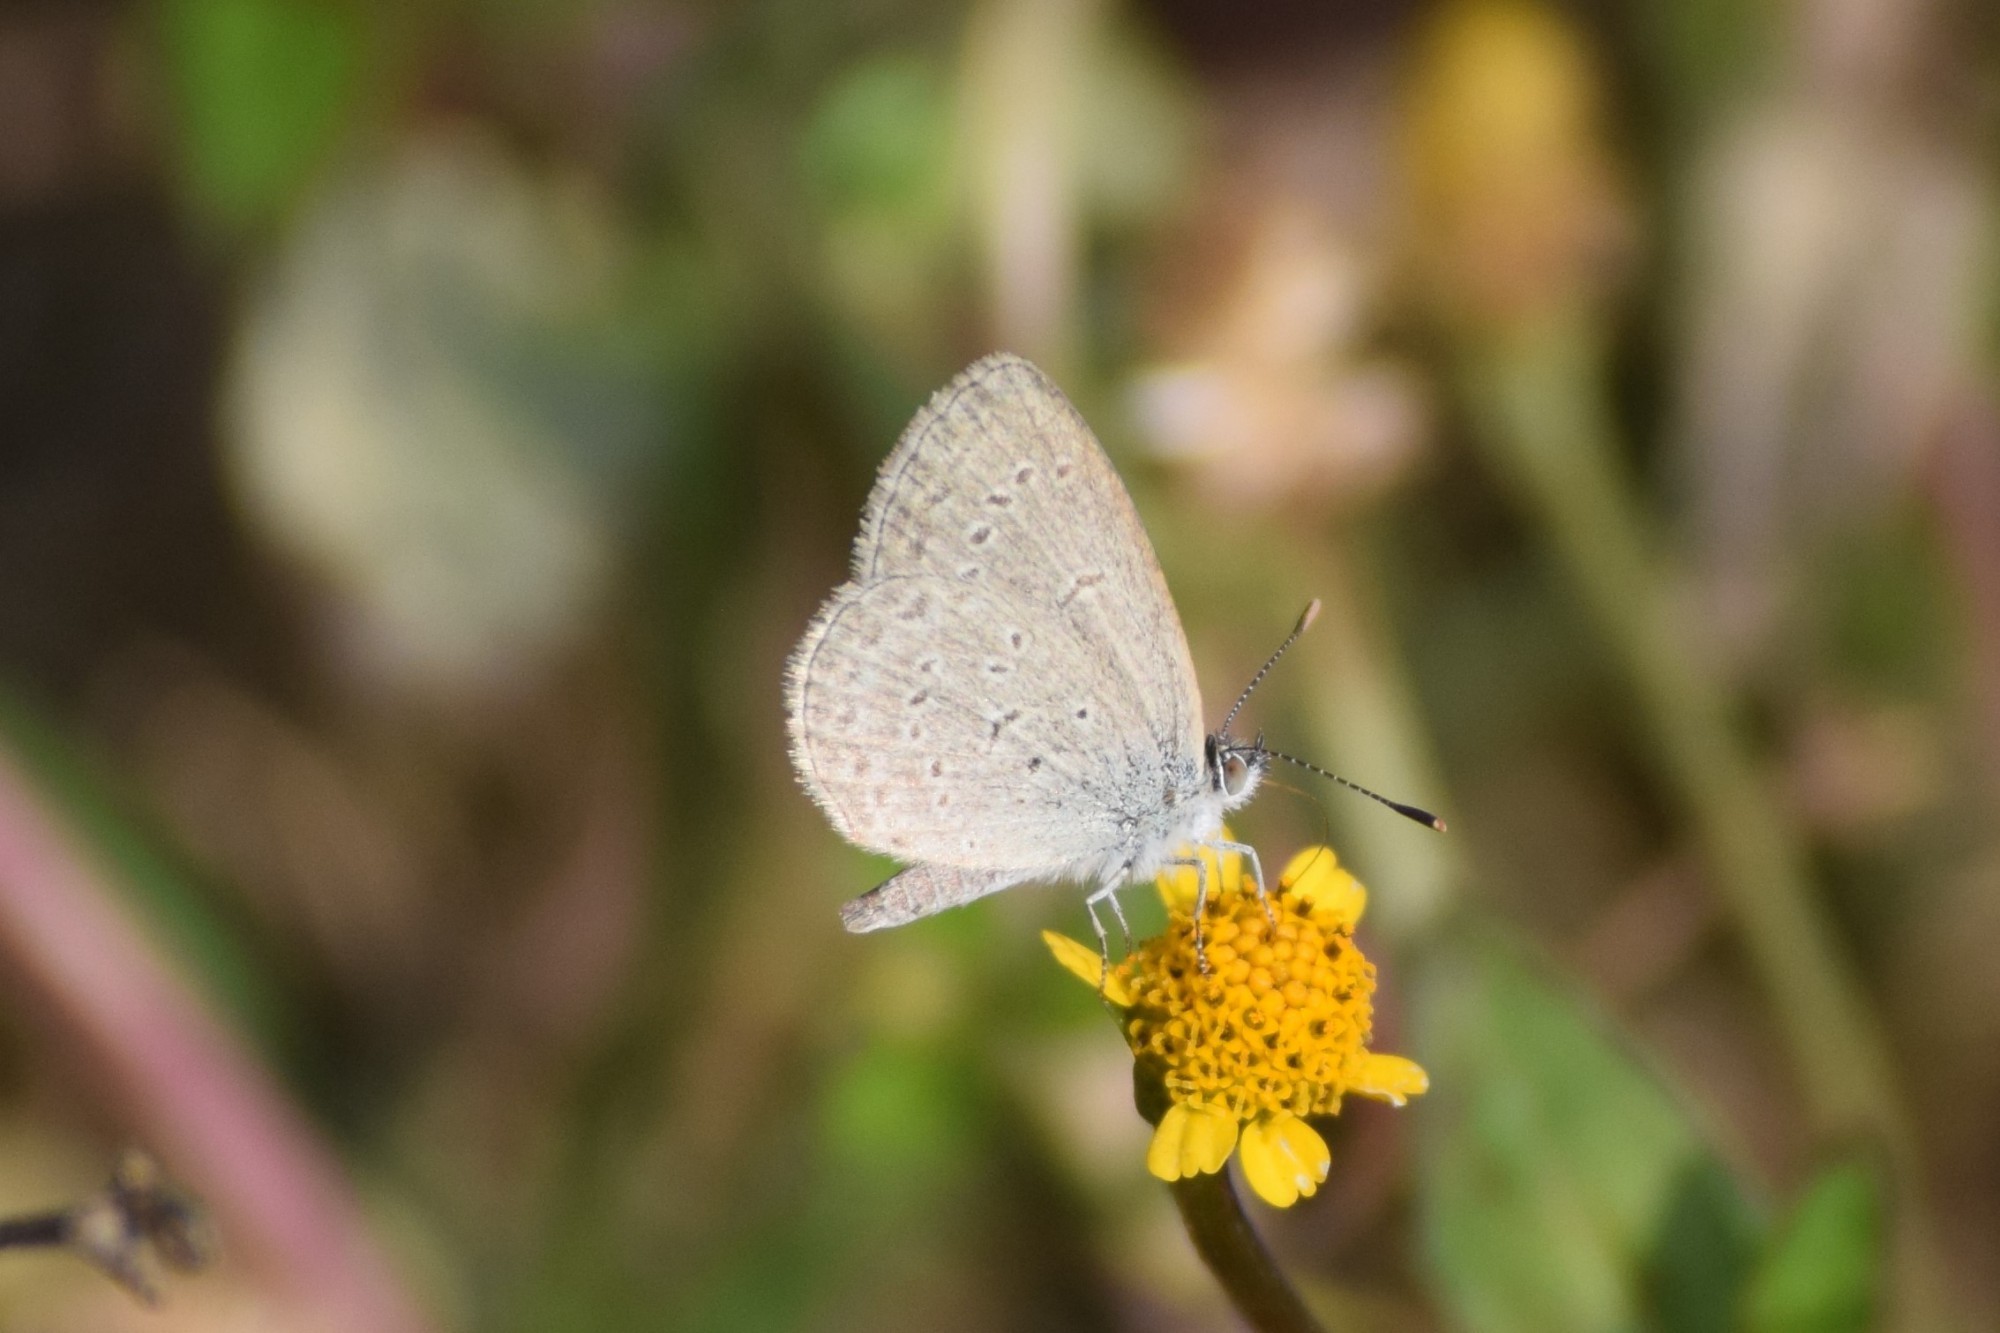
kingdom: Animalia
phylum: Arthropoda
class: Insecta
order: Lepidoptera
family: Lycaenidae
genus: Zizina
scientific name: Zizina otis
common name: Lesser grass blue
